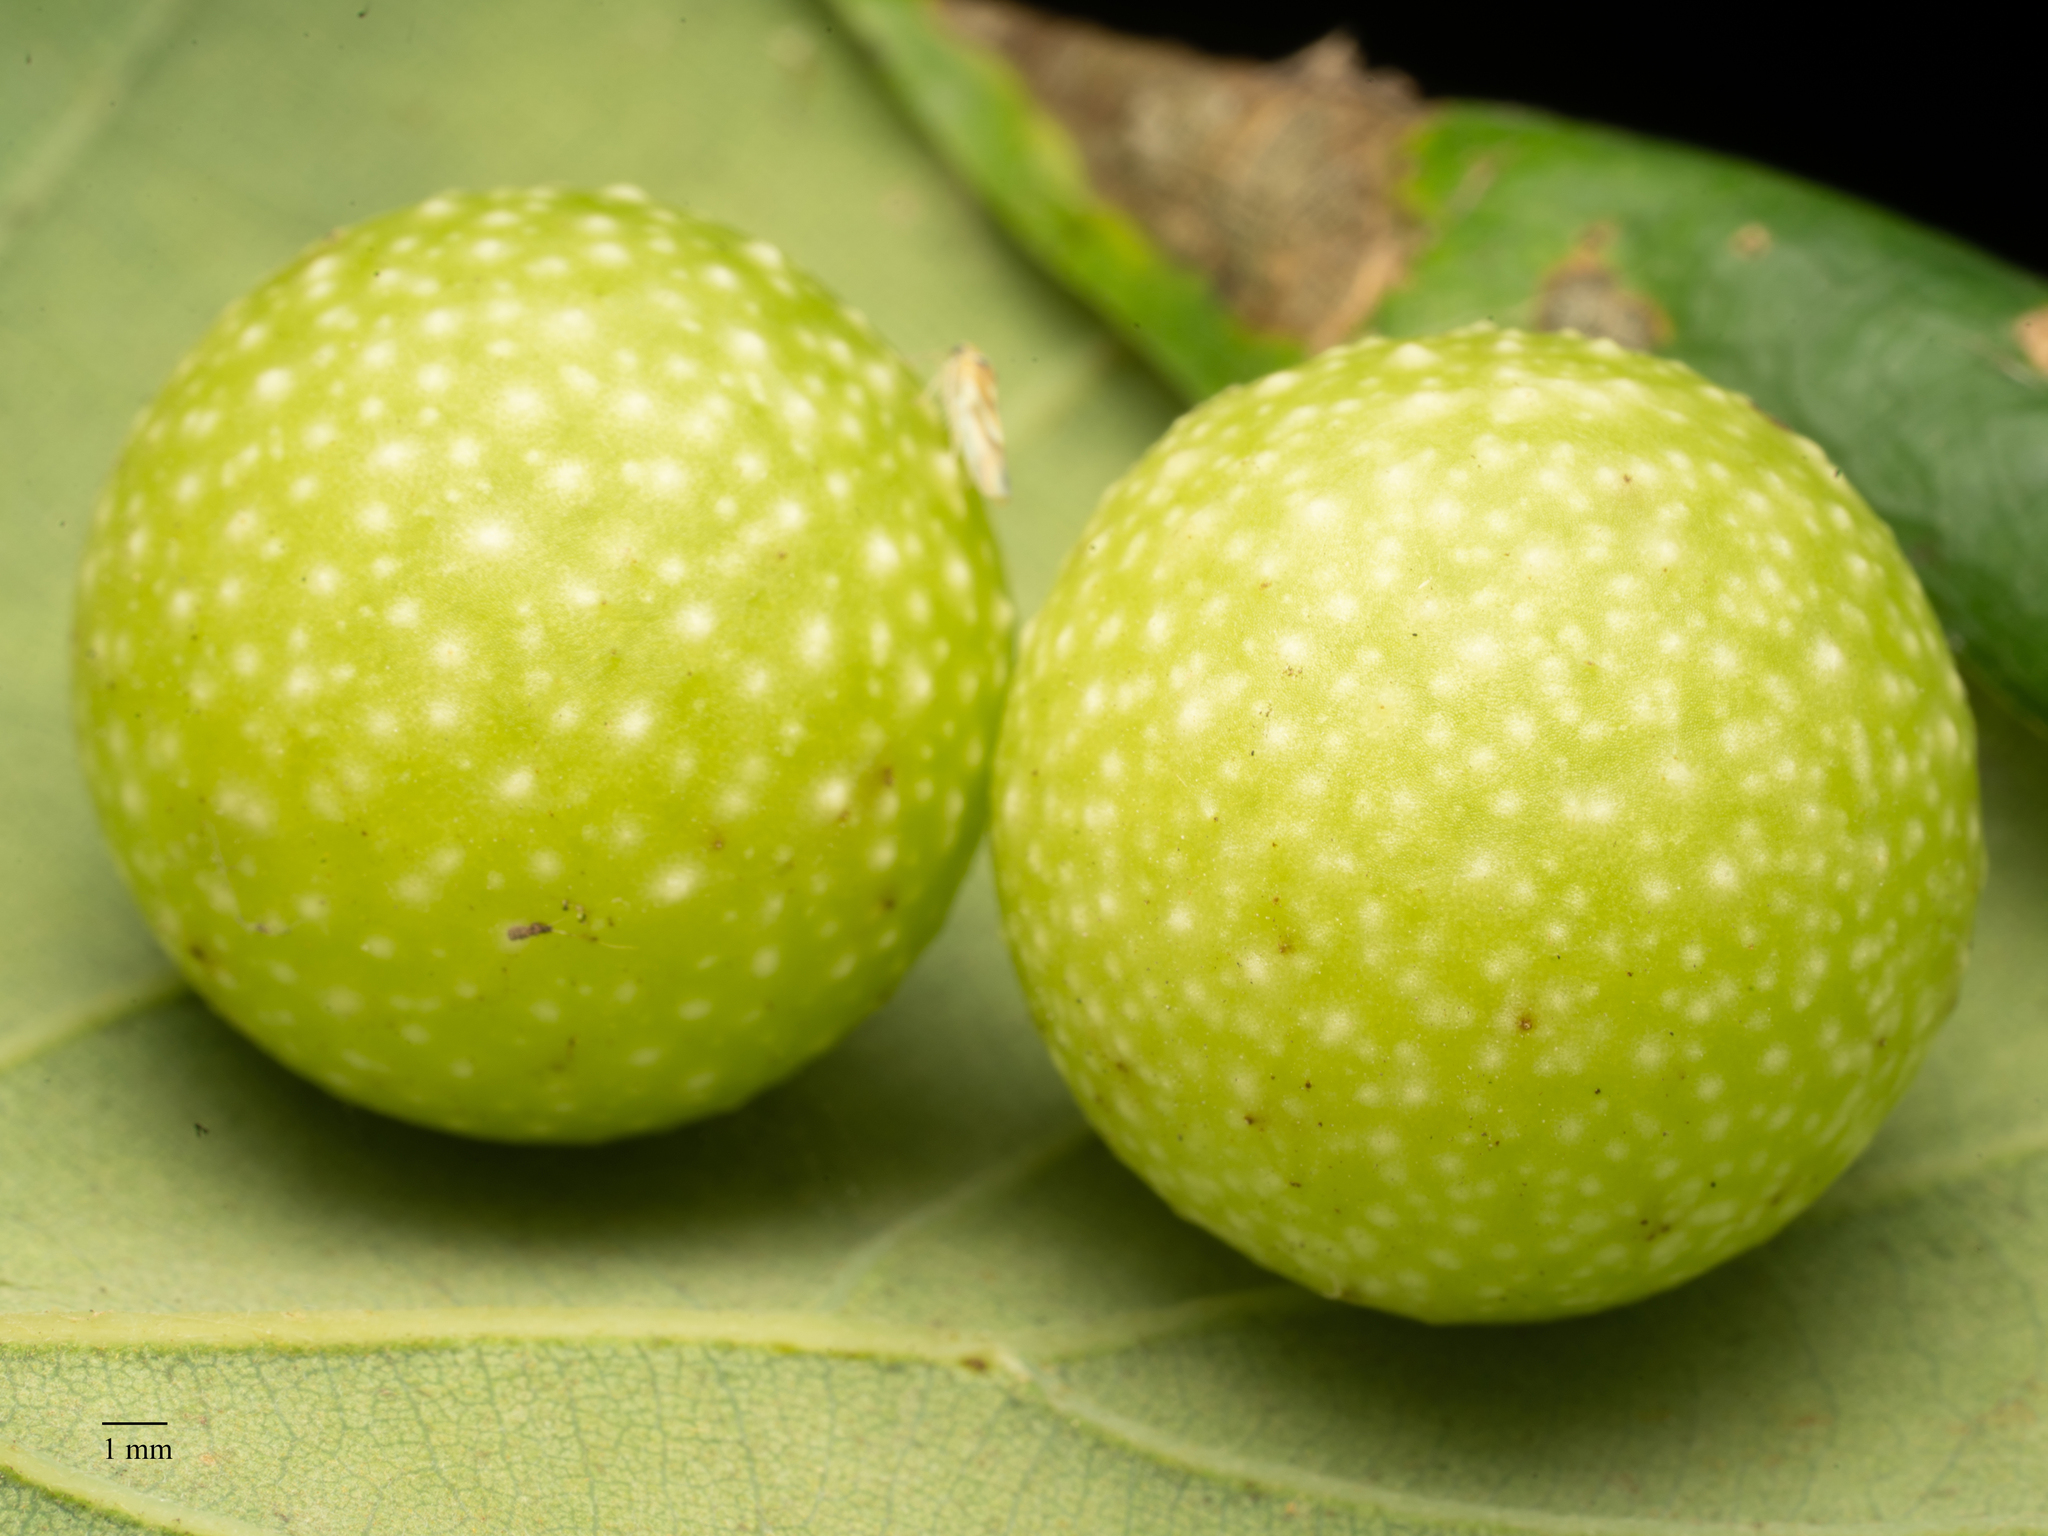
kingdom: Animalia
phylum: Arthropoda
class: Insecta
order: Hymenoptera
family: Cynipidae
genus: Cynips
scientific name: Cynips quercusfolii
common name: Cherry gall
